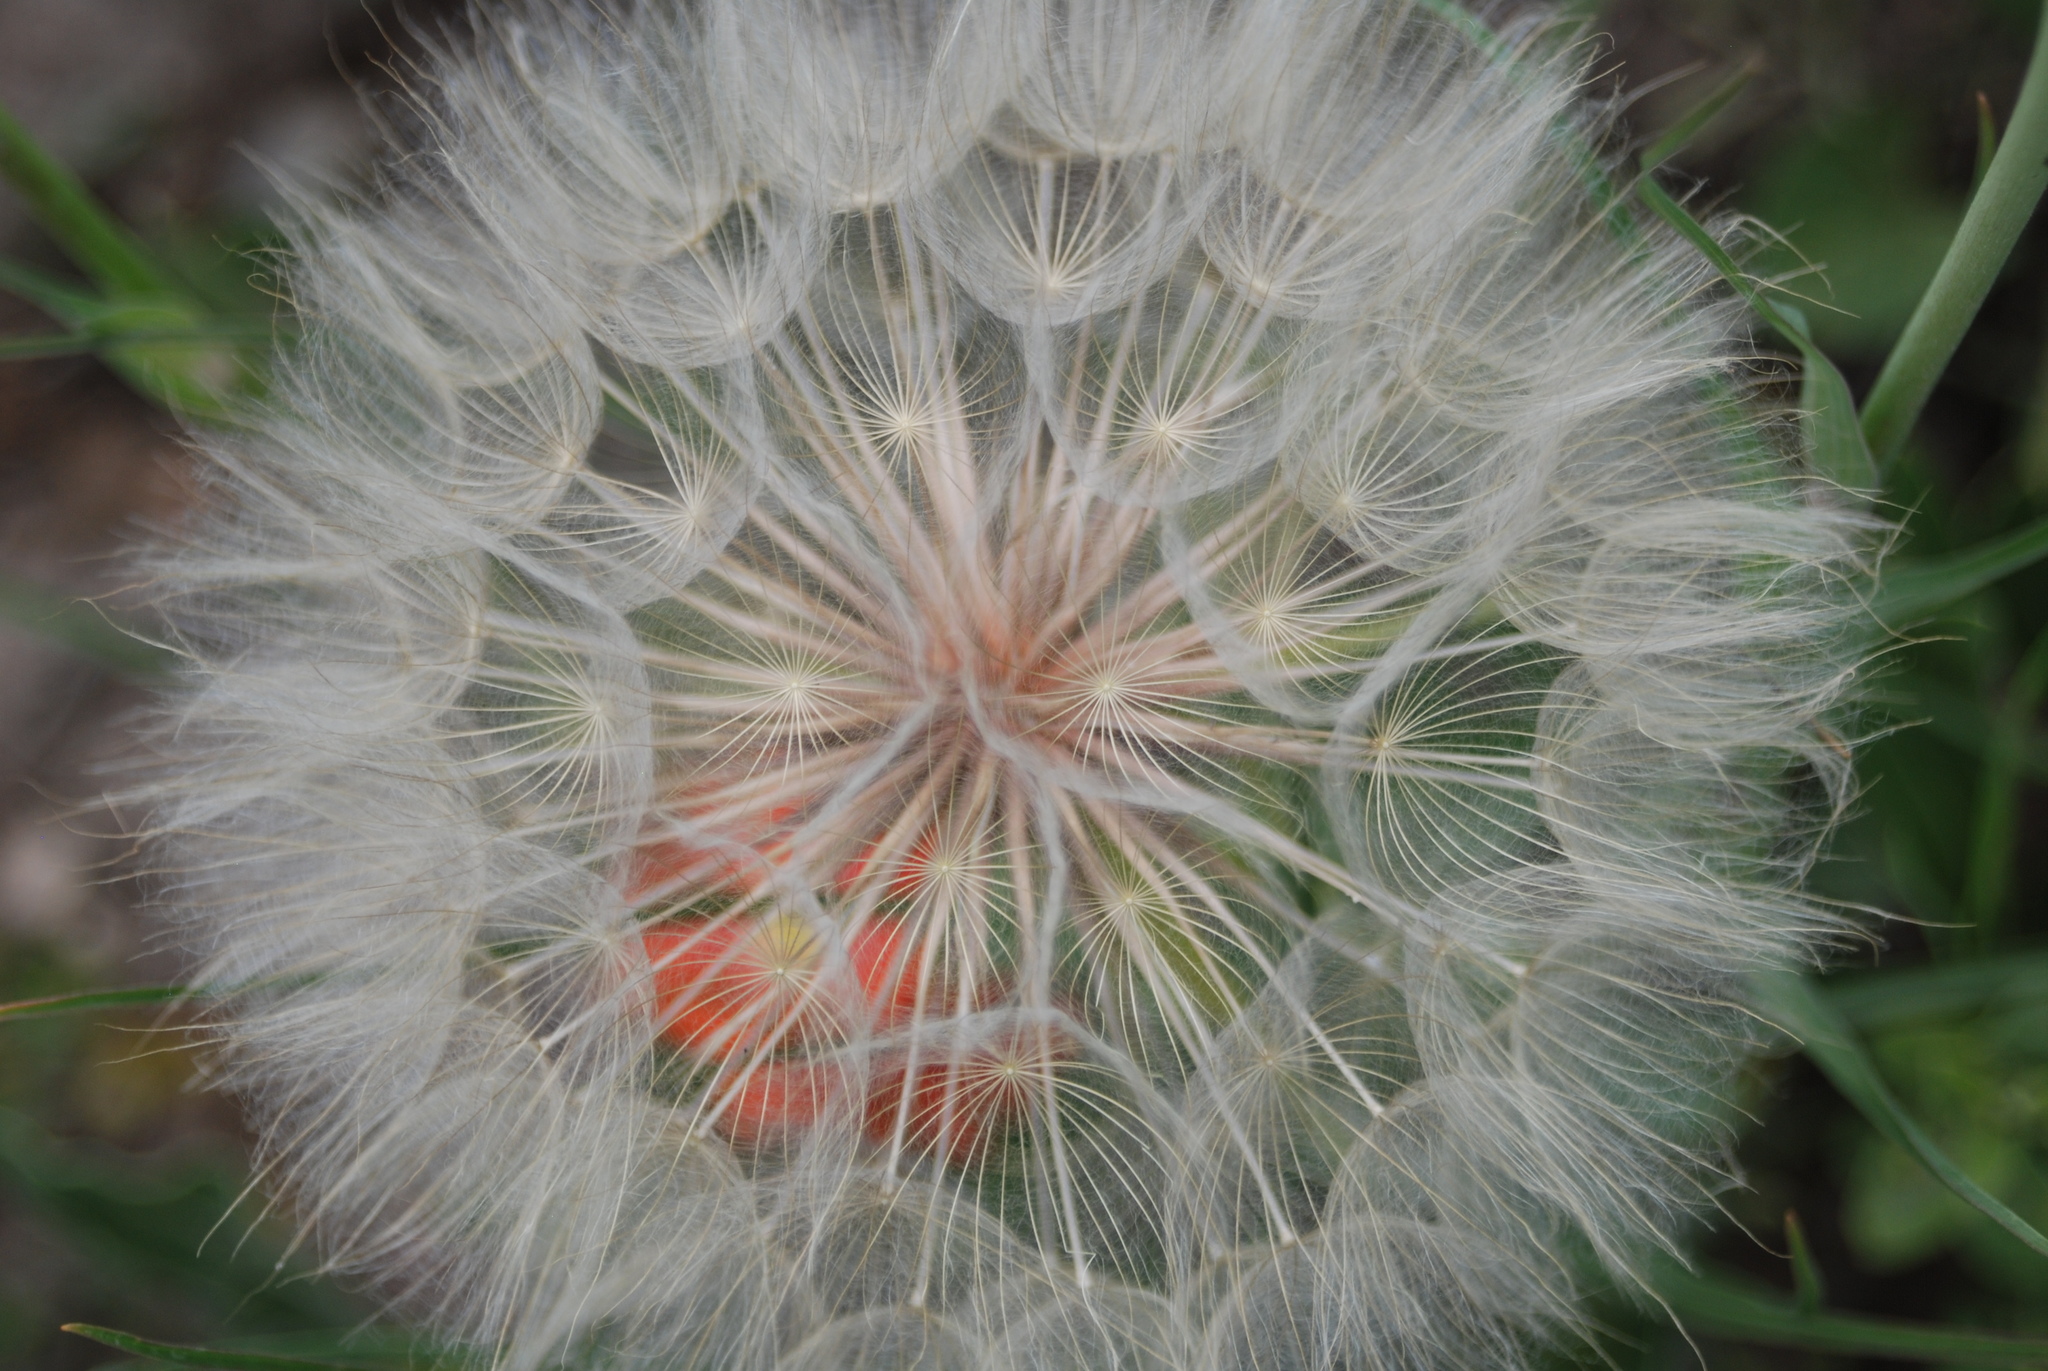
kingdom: Plantae
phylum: Tracheophyta
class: Magnoliopsida
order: Asterales
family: Asteraceae
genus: Tragopogon
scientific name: Tragopogon dubius
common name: Yellow salsify
